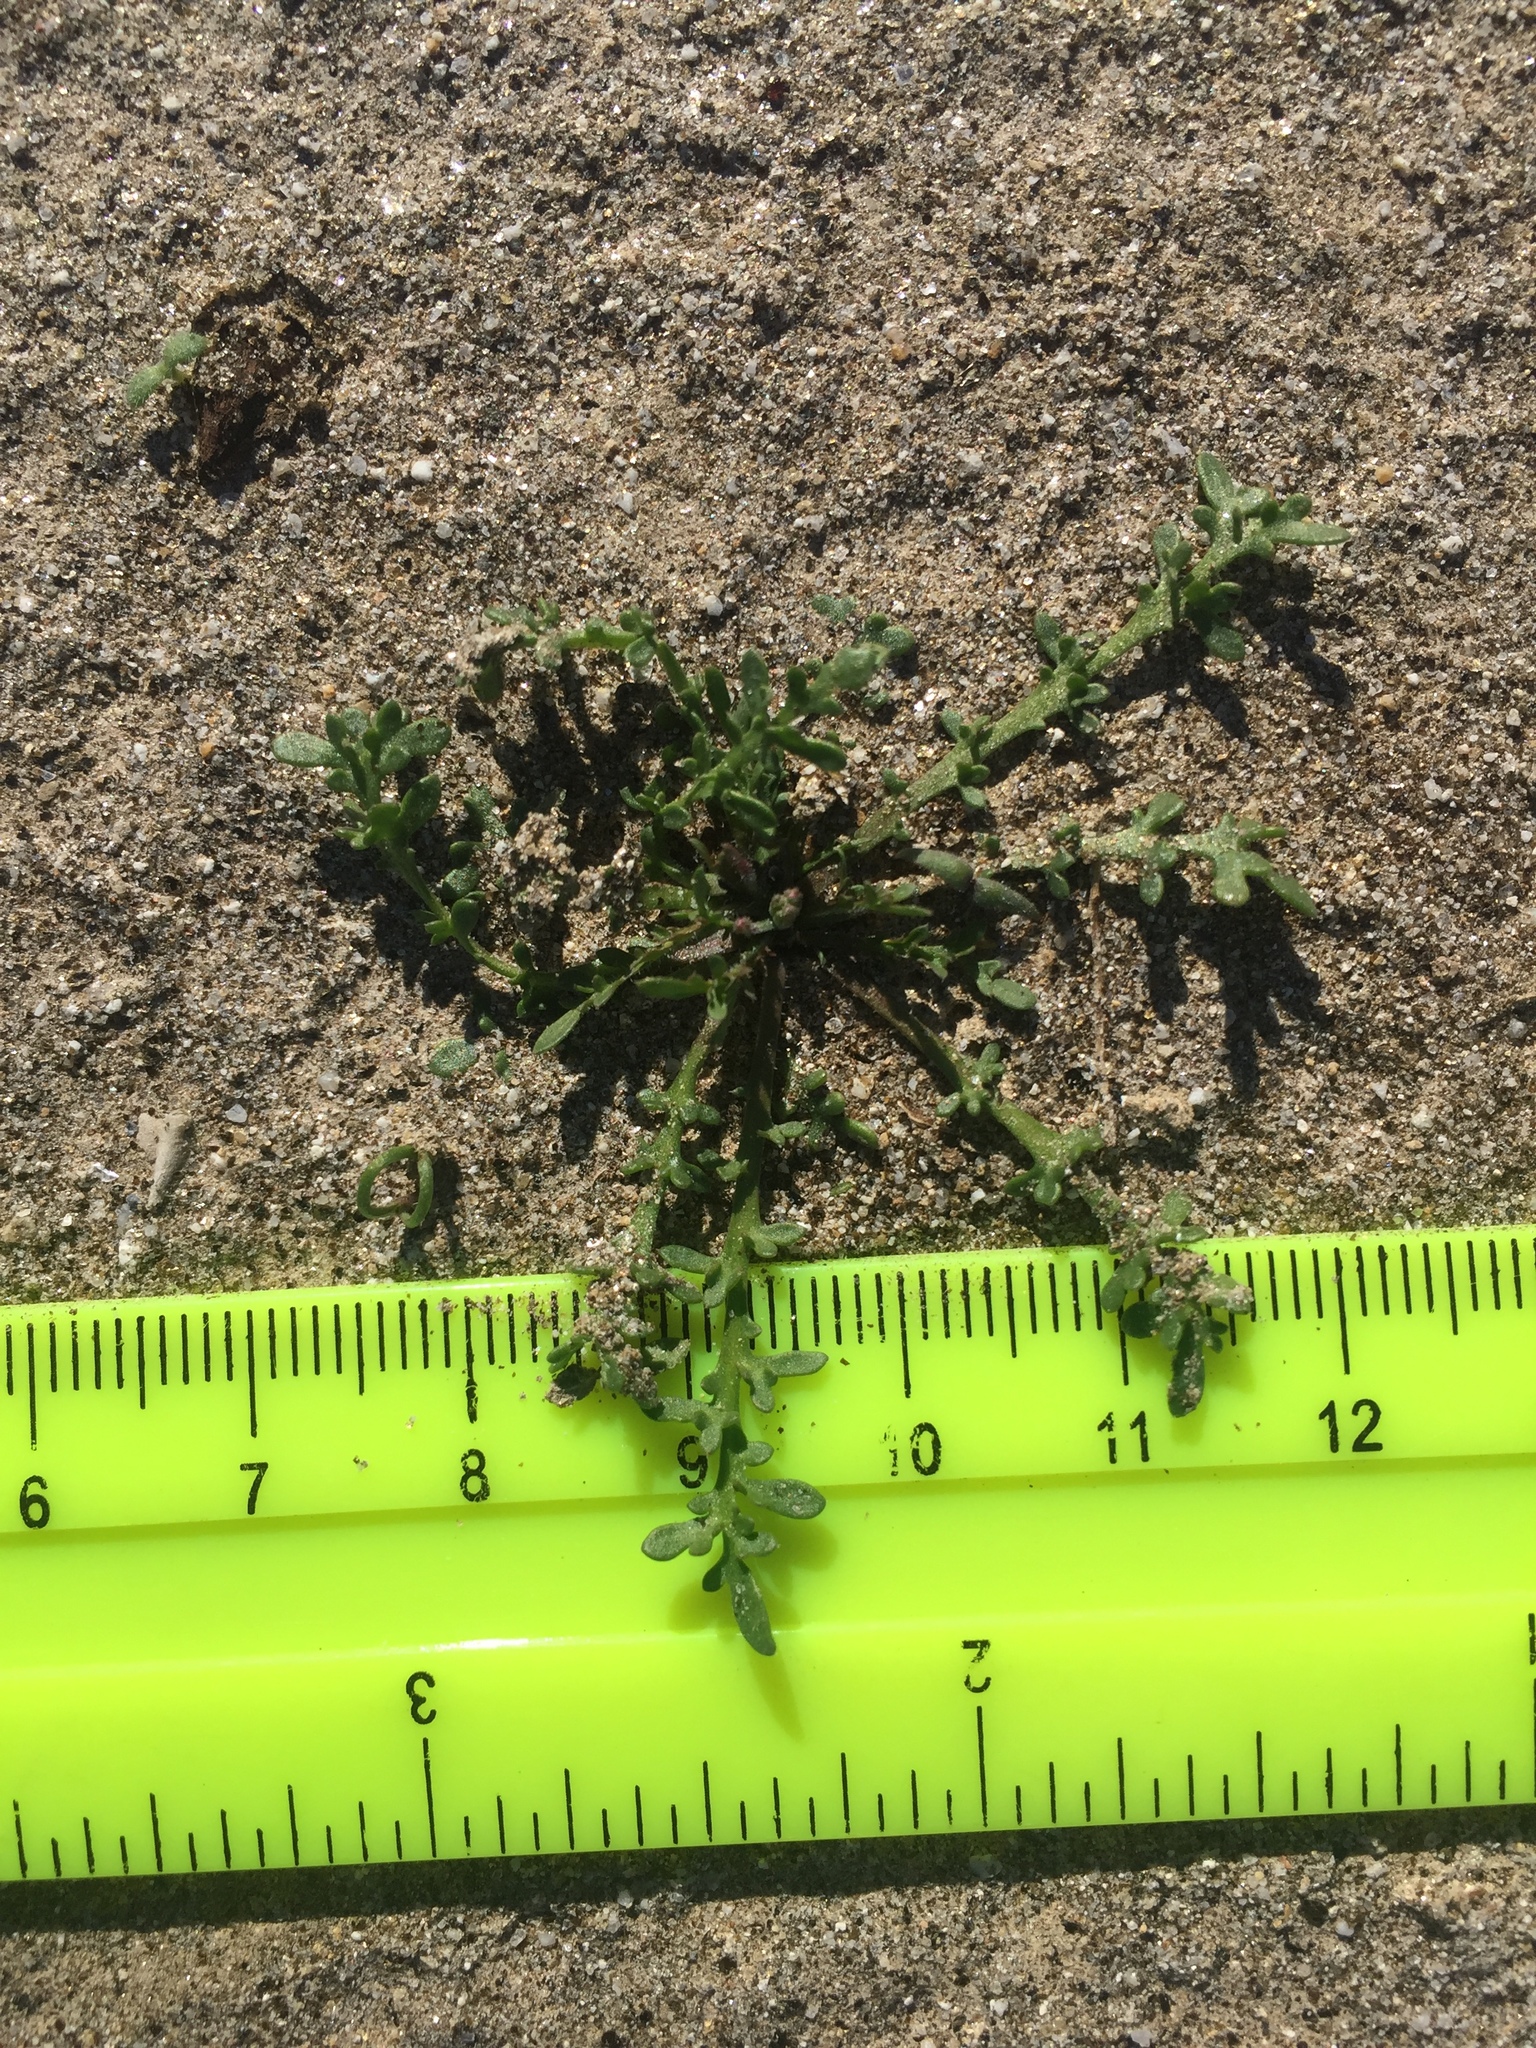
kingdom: Plantae
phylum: Tracheophyta
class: Magnoliopsida
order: Brassicales
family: Brassicaceae
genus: Lepidium
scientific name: Lepidium lasiocarpum
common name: Hairy-pod pepperwort
